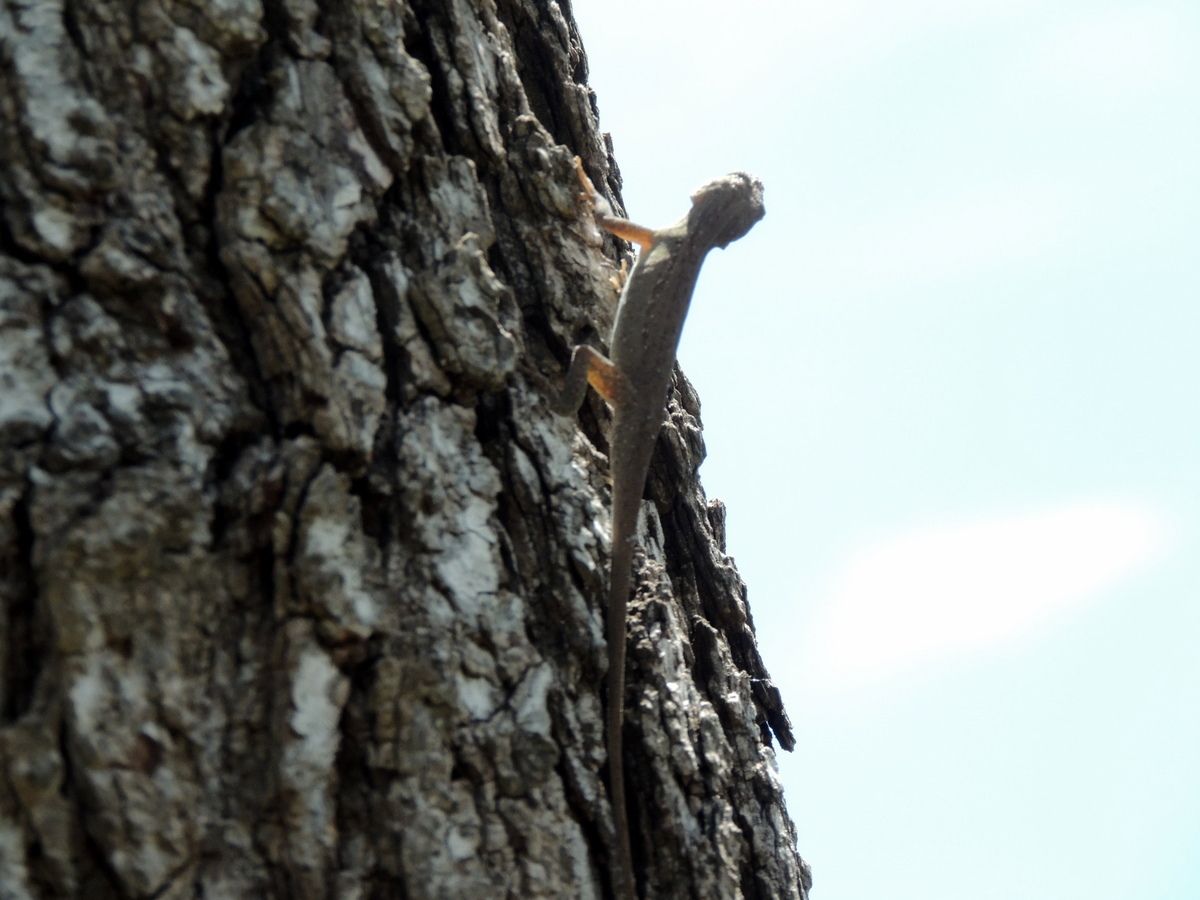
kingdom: Animalia
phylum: Chordata
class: Squamata
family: Dactyloidae
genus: Anolis
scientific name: Anolis sagrei
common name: Brown anole
